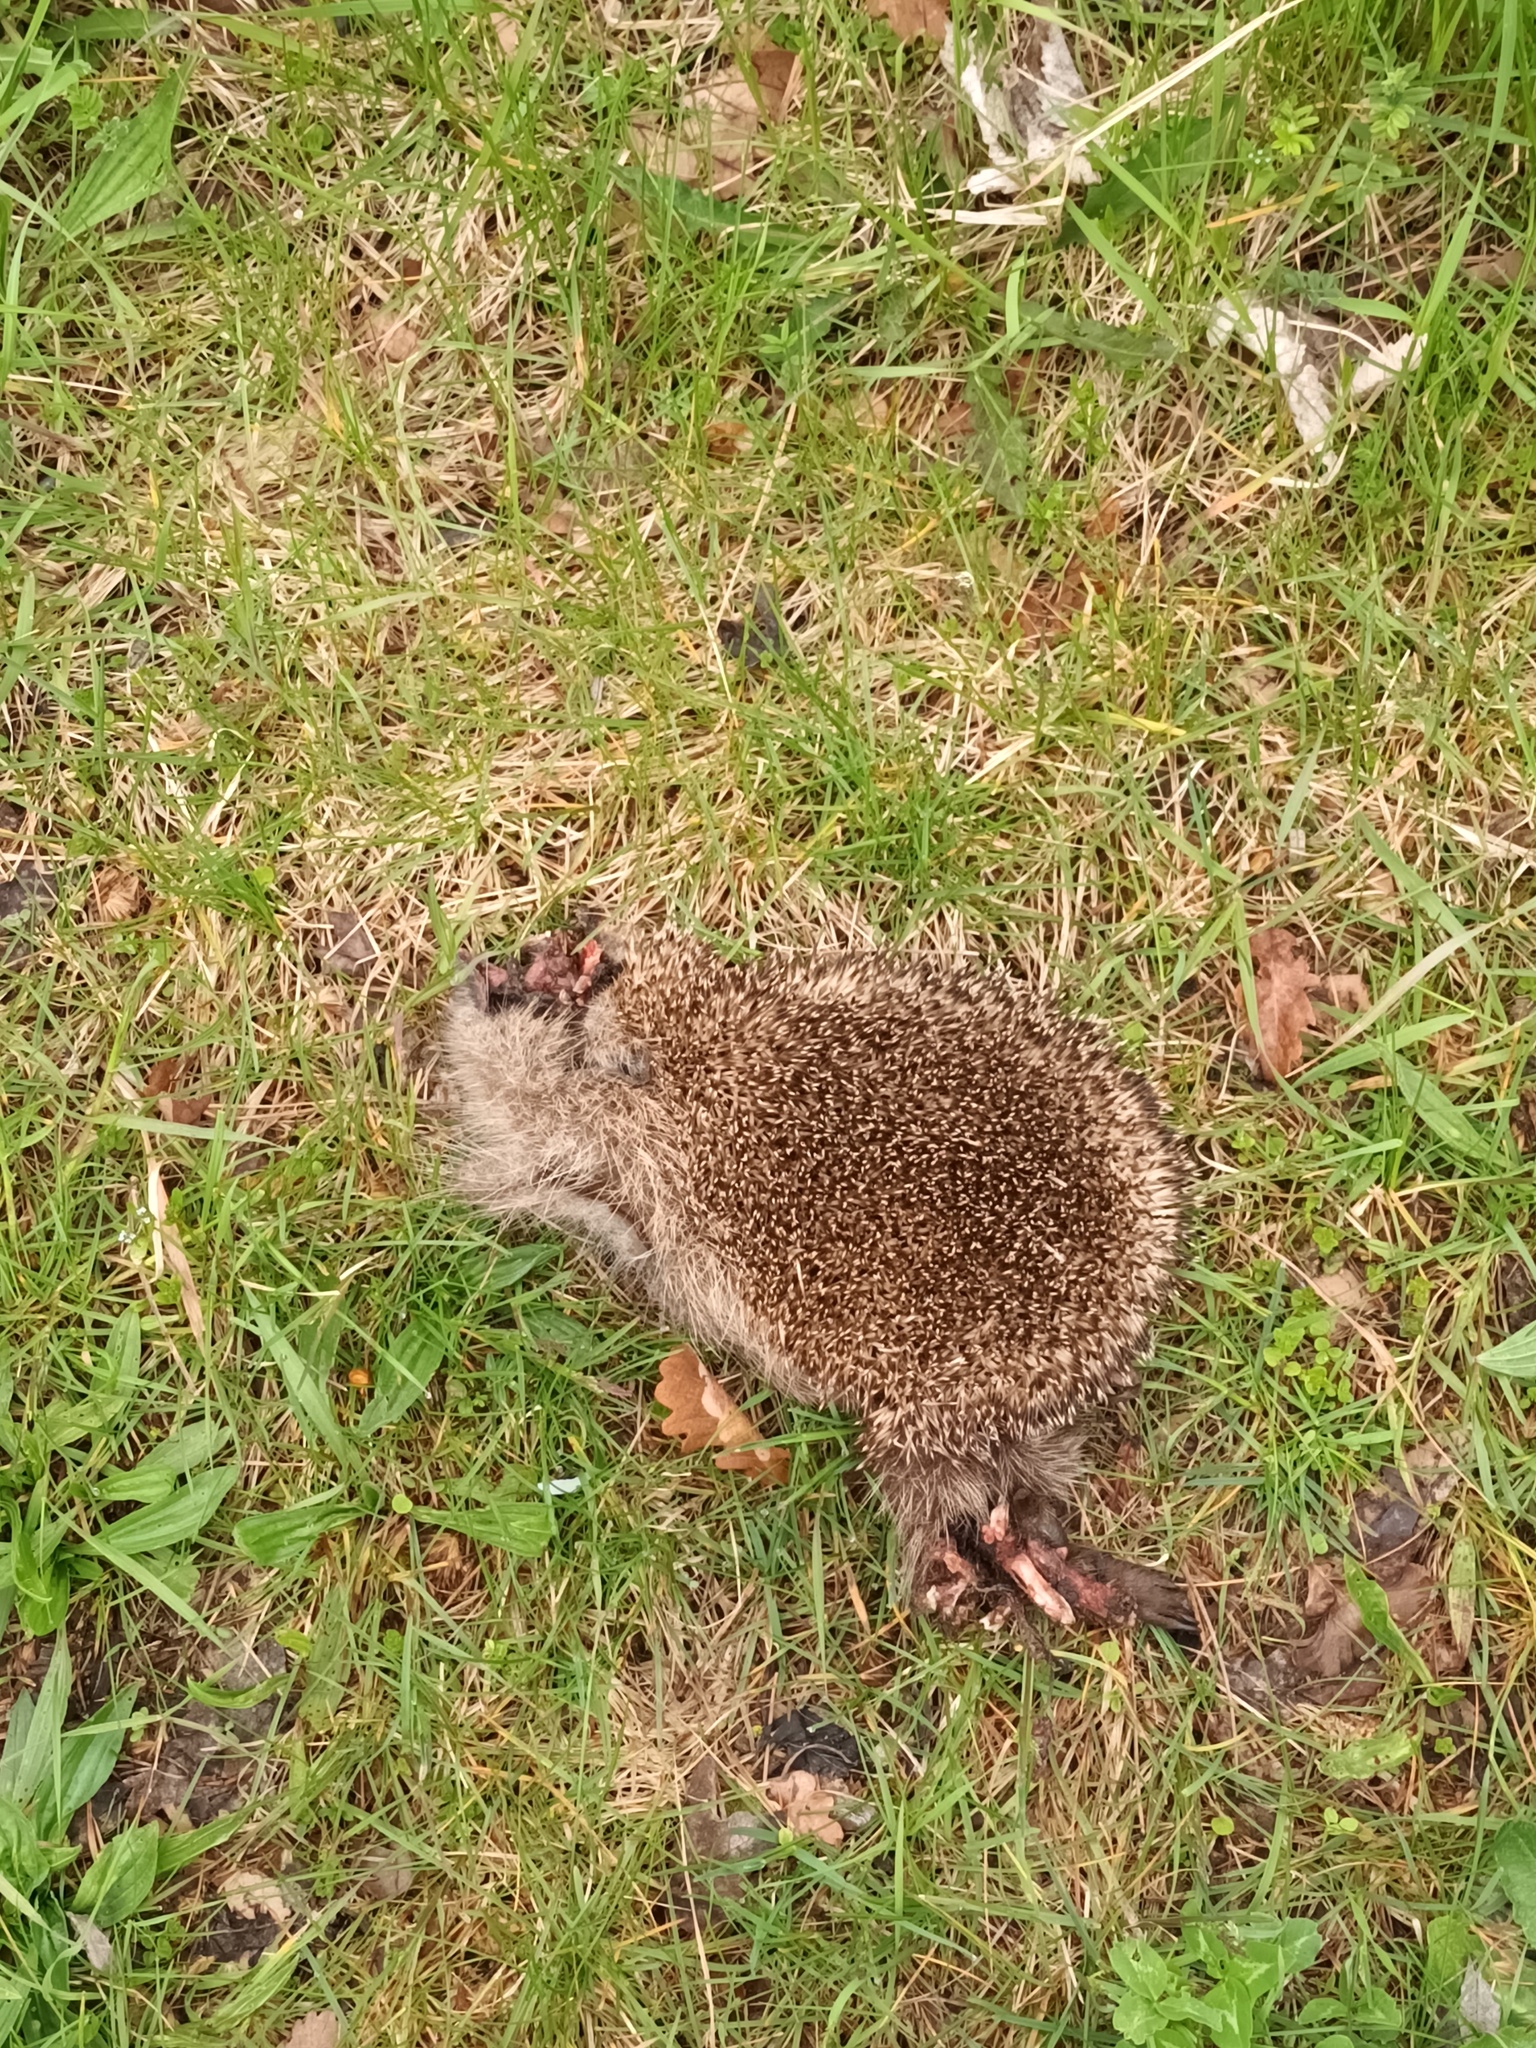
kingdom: Animalia
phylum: Chordata
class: Mammalia
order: Erinaceomorpha
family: Erinaceidae
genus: Erinaceus
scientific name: Erinaceus europaeus
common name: West european hedgehog
